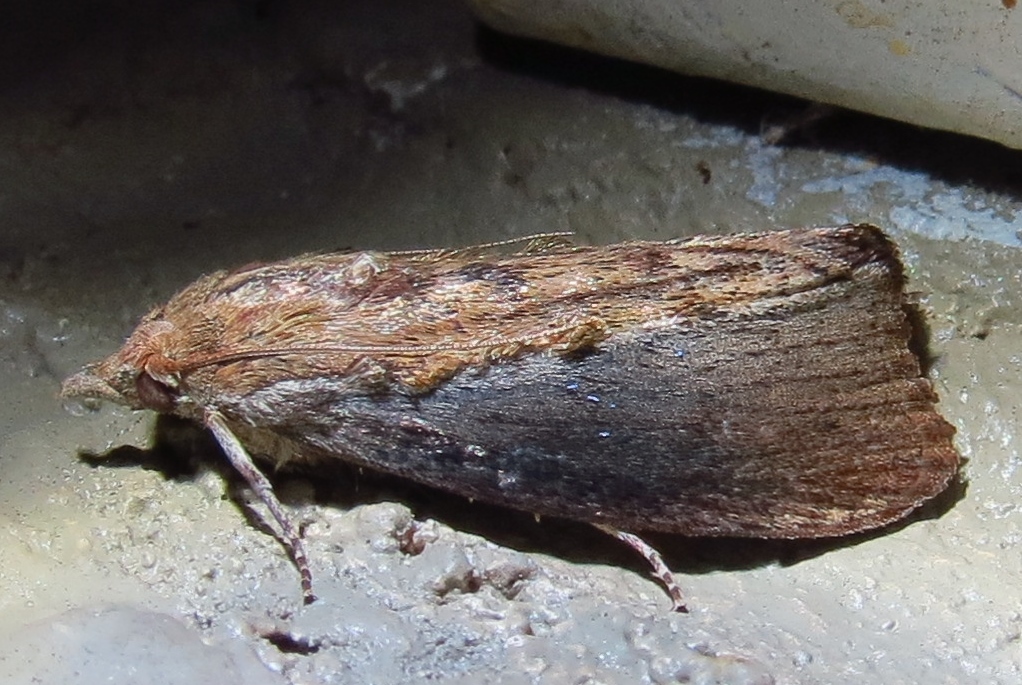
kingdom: Animalia
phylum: Arthropoda
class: Insecta
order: Lepidoptera
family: Pyralidae
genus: Galleria
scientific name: Galleria mellonella
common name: Greater wax moth
